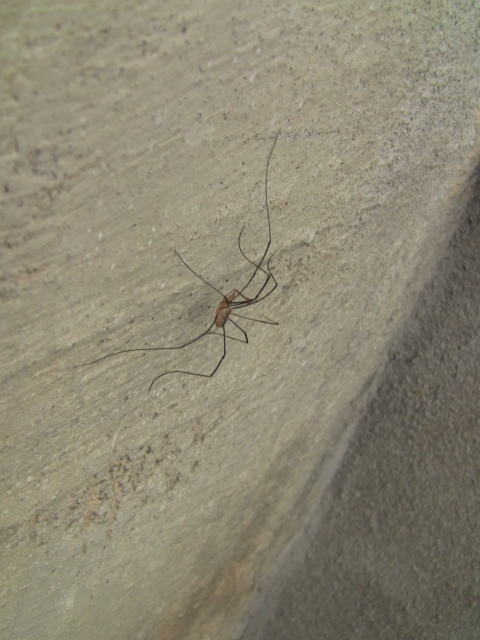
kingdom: Animalia
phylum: Arthropoda
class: Arachnida
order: Opiliones
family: Phalangiidae
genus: Phalangium
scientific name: Phalangium opilio
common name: Daddy longleg
